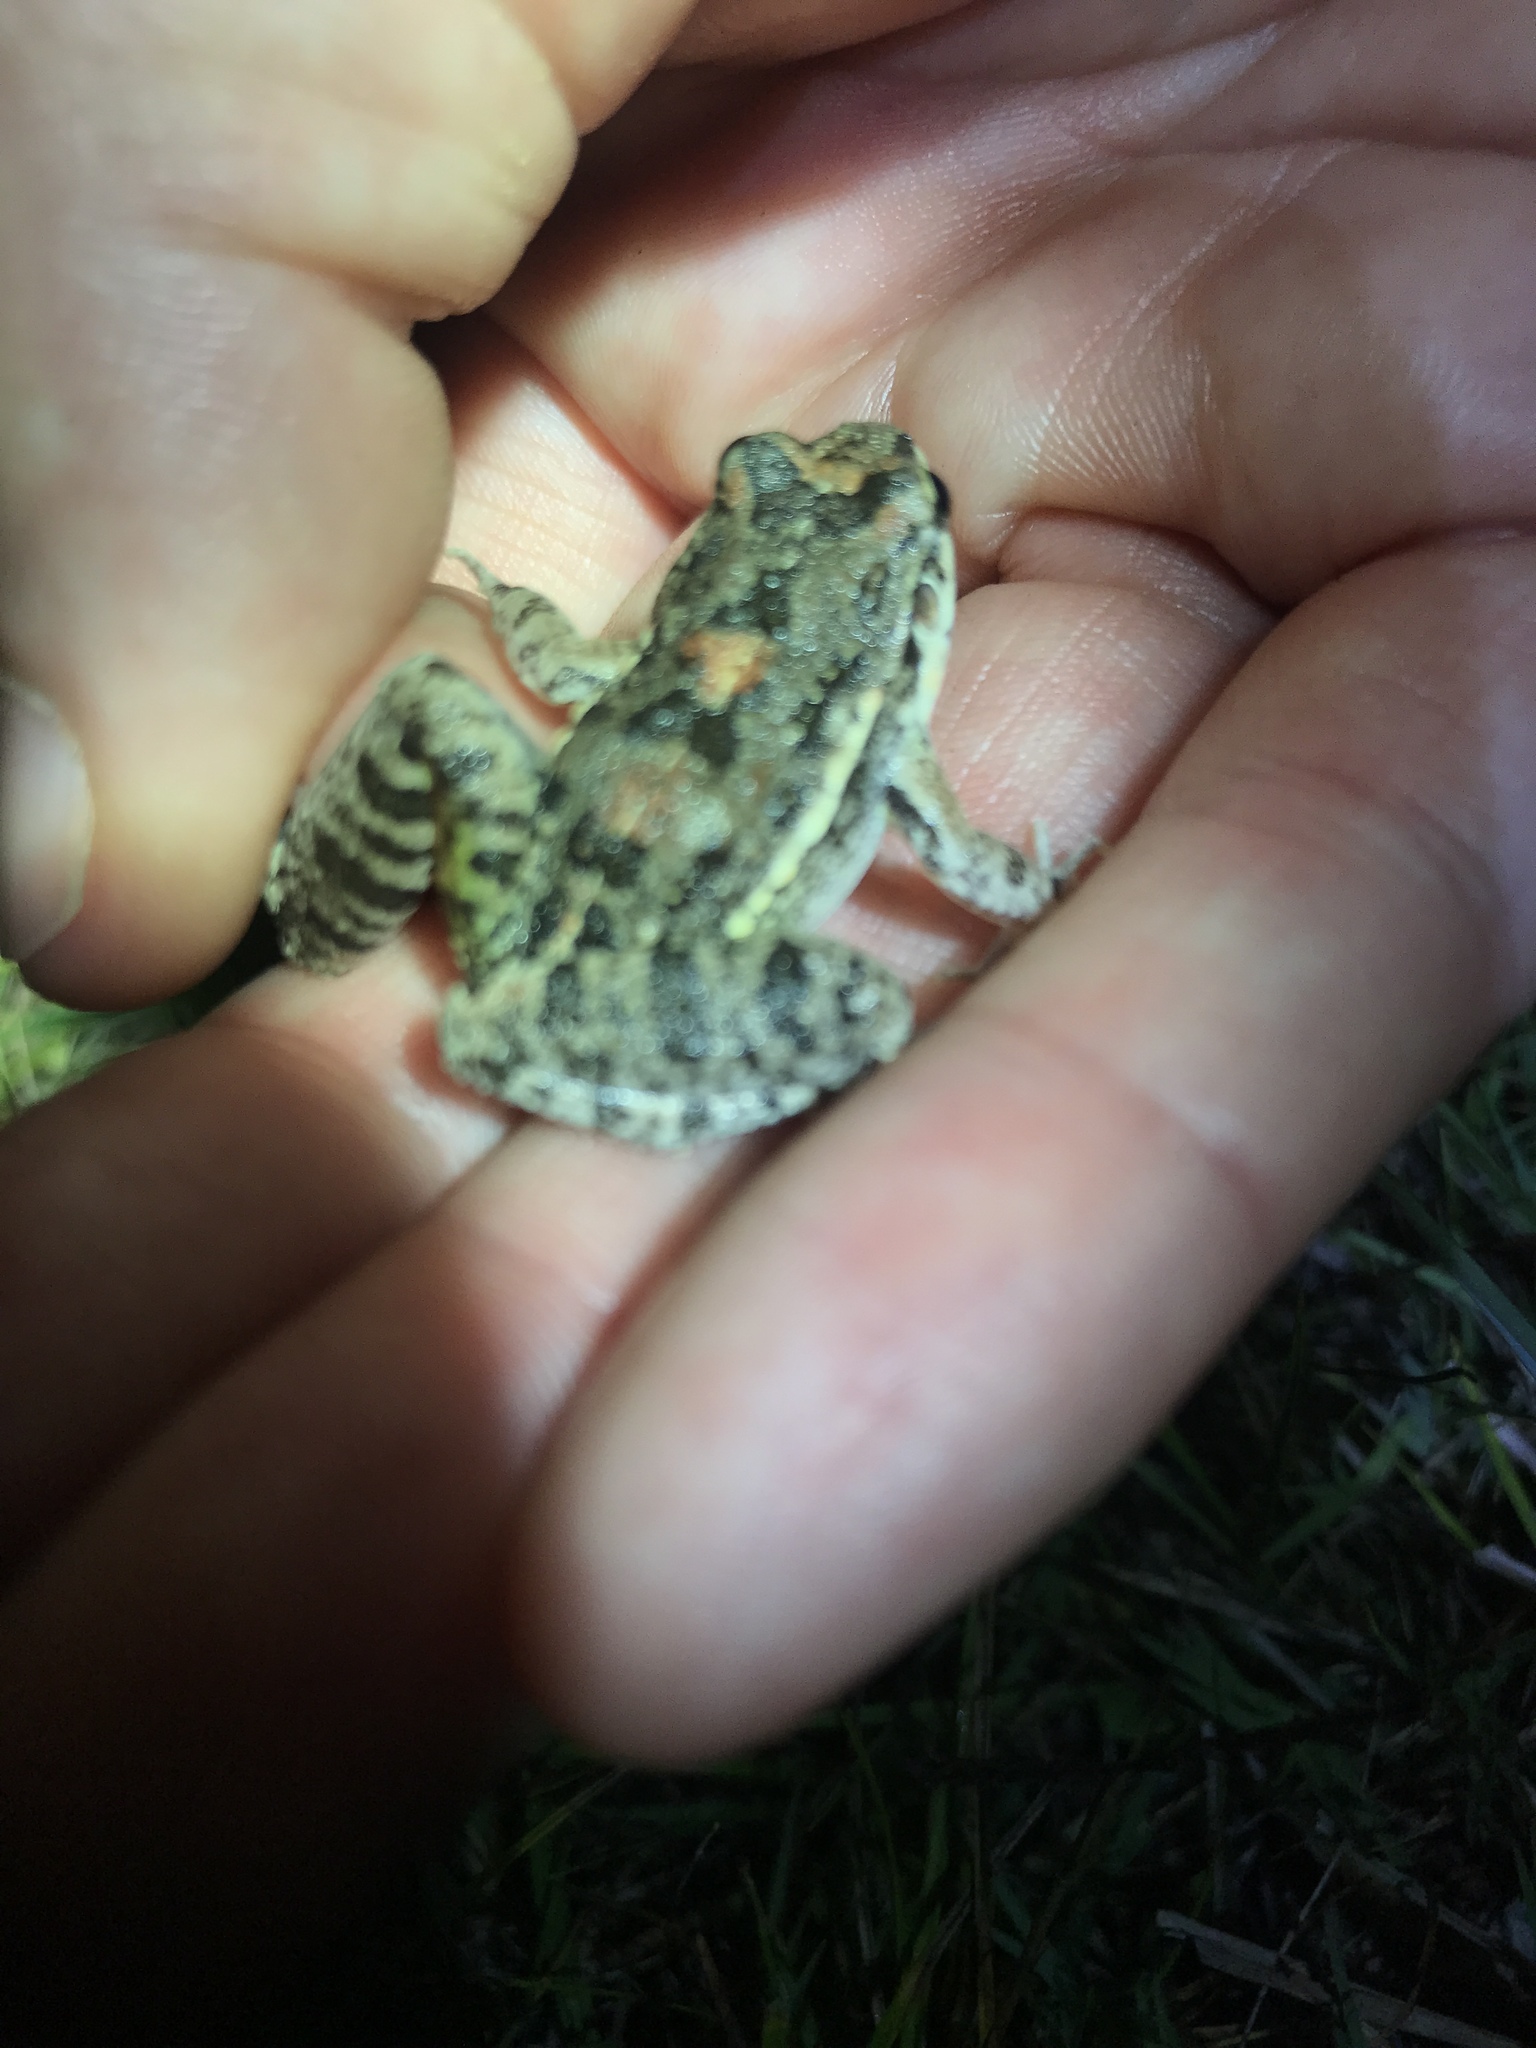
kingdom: Animalia
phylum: Chordata
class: Amphibia
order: Anura
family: Leptodactylidae
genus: Leptodactylus
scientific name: Leptodactylus latinasus
